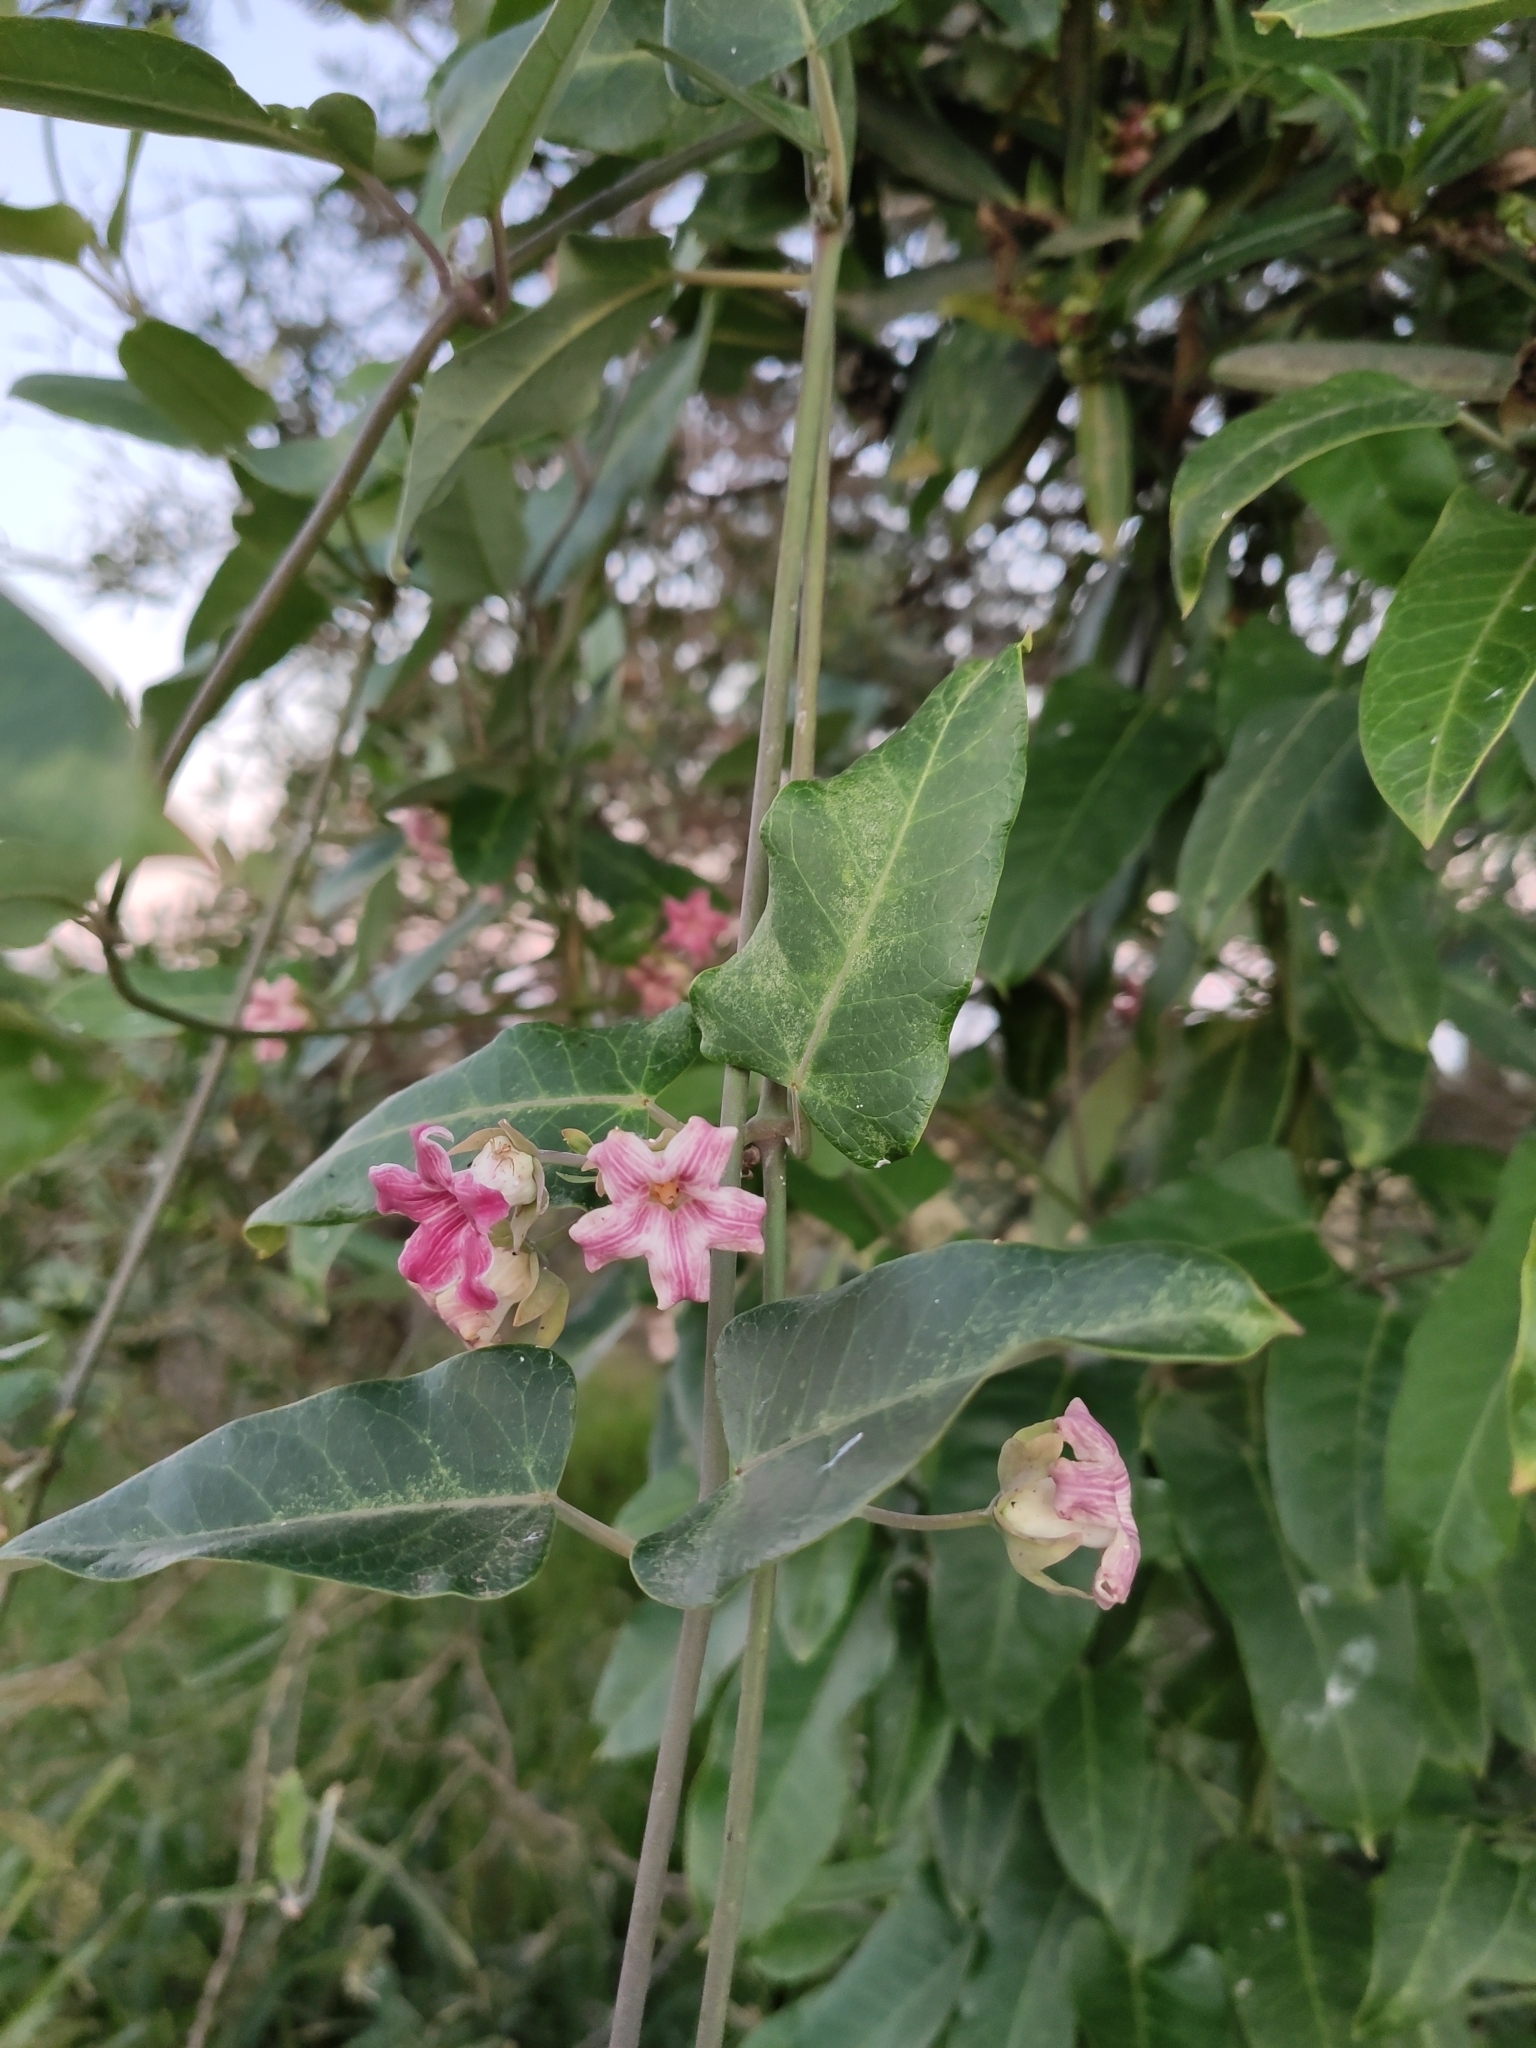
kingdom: Plantae
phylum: Tracheophyta
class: Magnoliopsida
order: Gentianales
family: Apocynaceae
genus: Araujia
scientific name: Araujia sericifera
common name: White bladderflower
